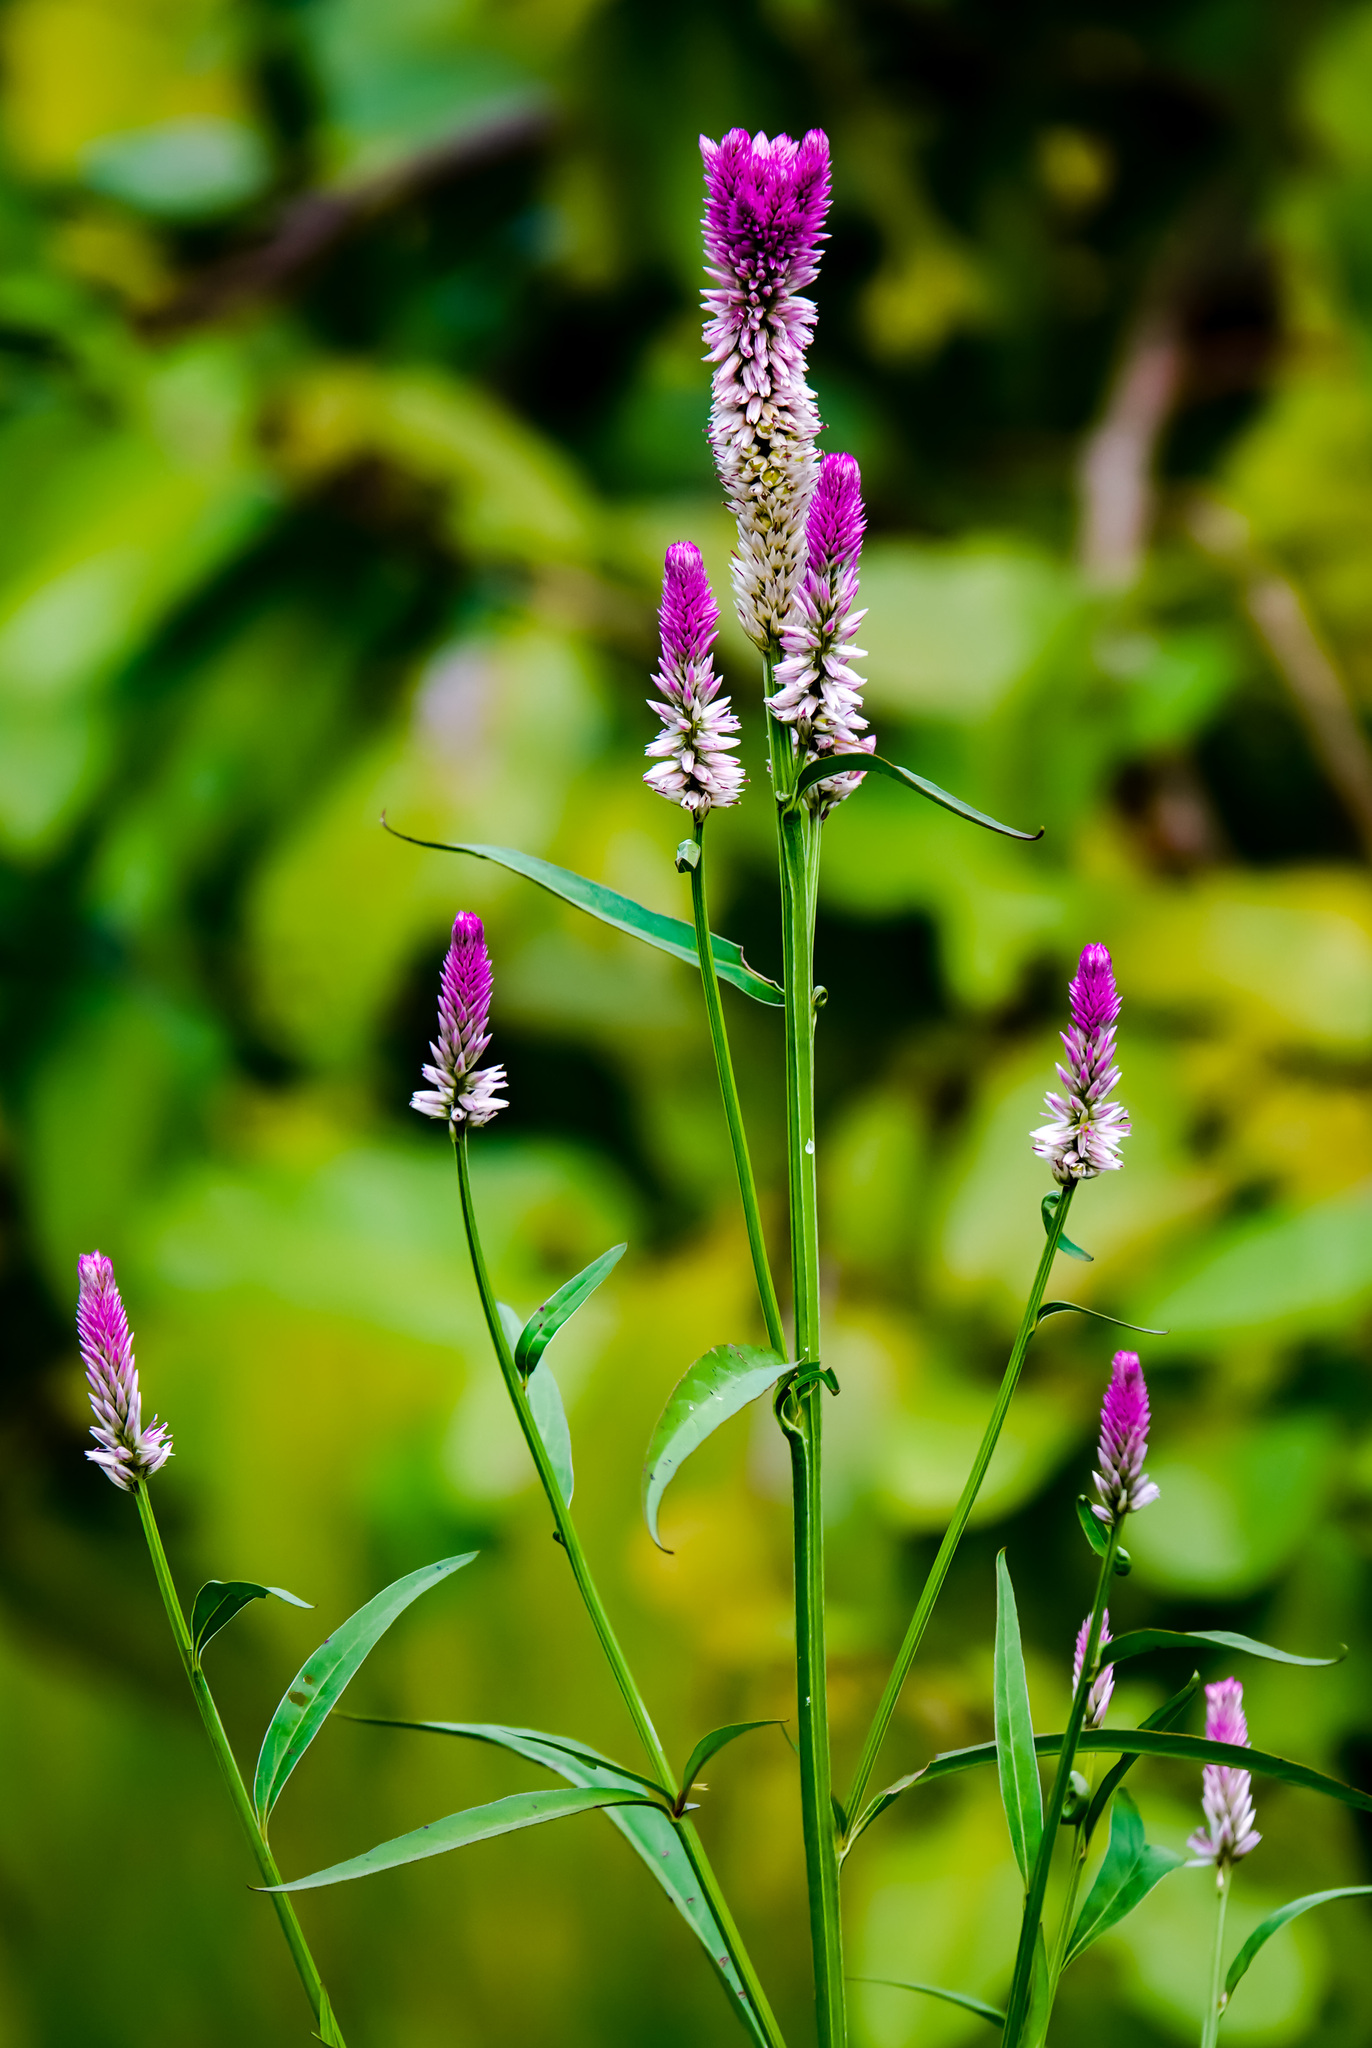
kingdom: Plantae
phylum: Tracheophyta
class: Magnoliopsida
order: Caryophyllales
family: Amaranthaceae
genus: Celosia
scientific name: Celosia argentea
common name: Feather cockscomb
